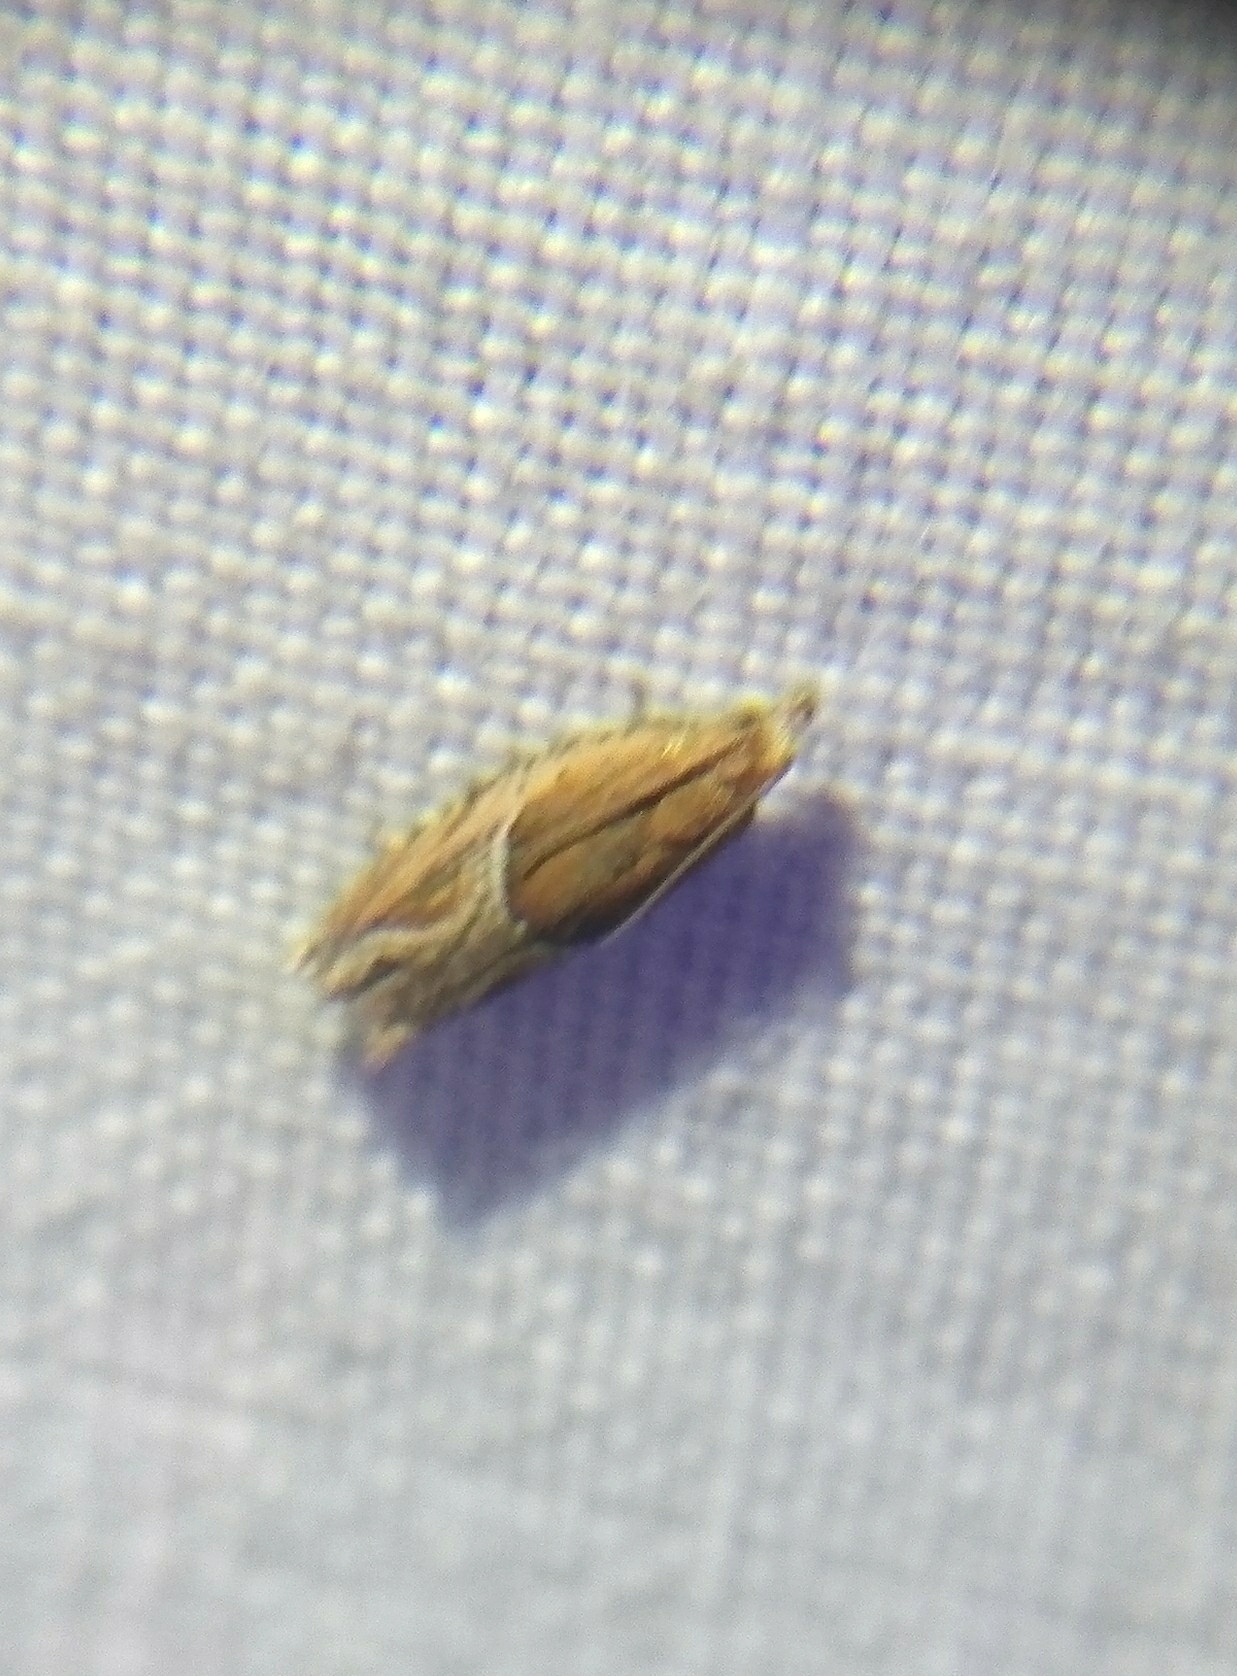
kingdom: Animalia
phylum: Arthropoda
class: Insecta
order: Lepidoptera
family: Tortricidae
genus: Ancylis
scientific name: Ancylis comptana
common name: Little roller
